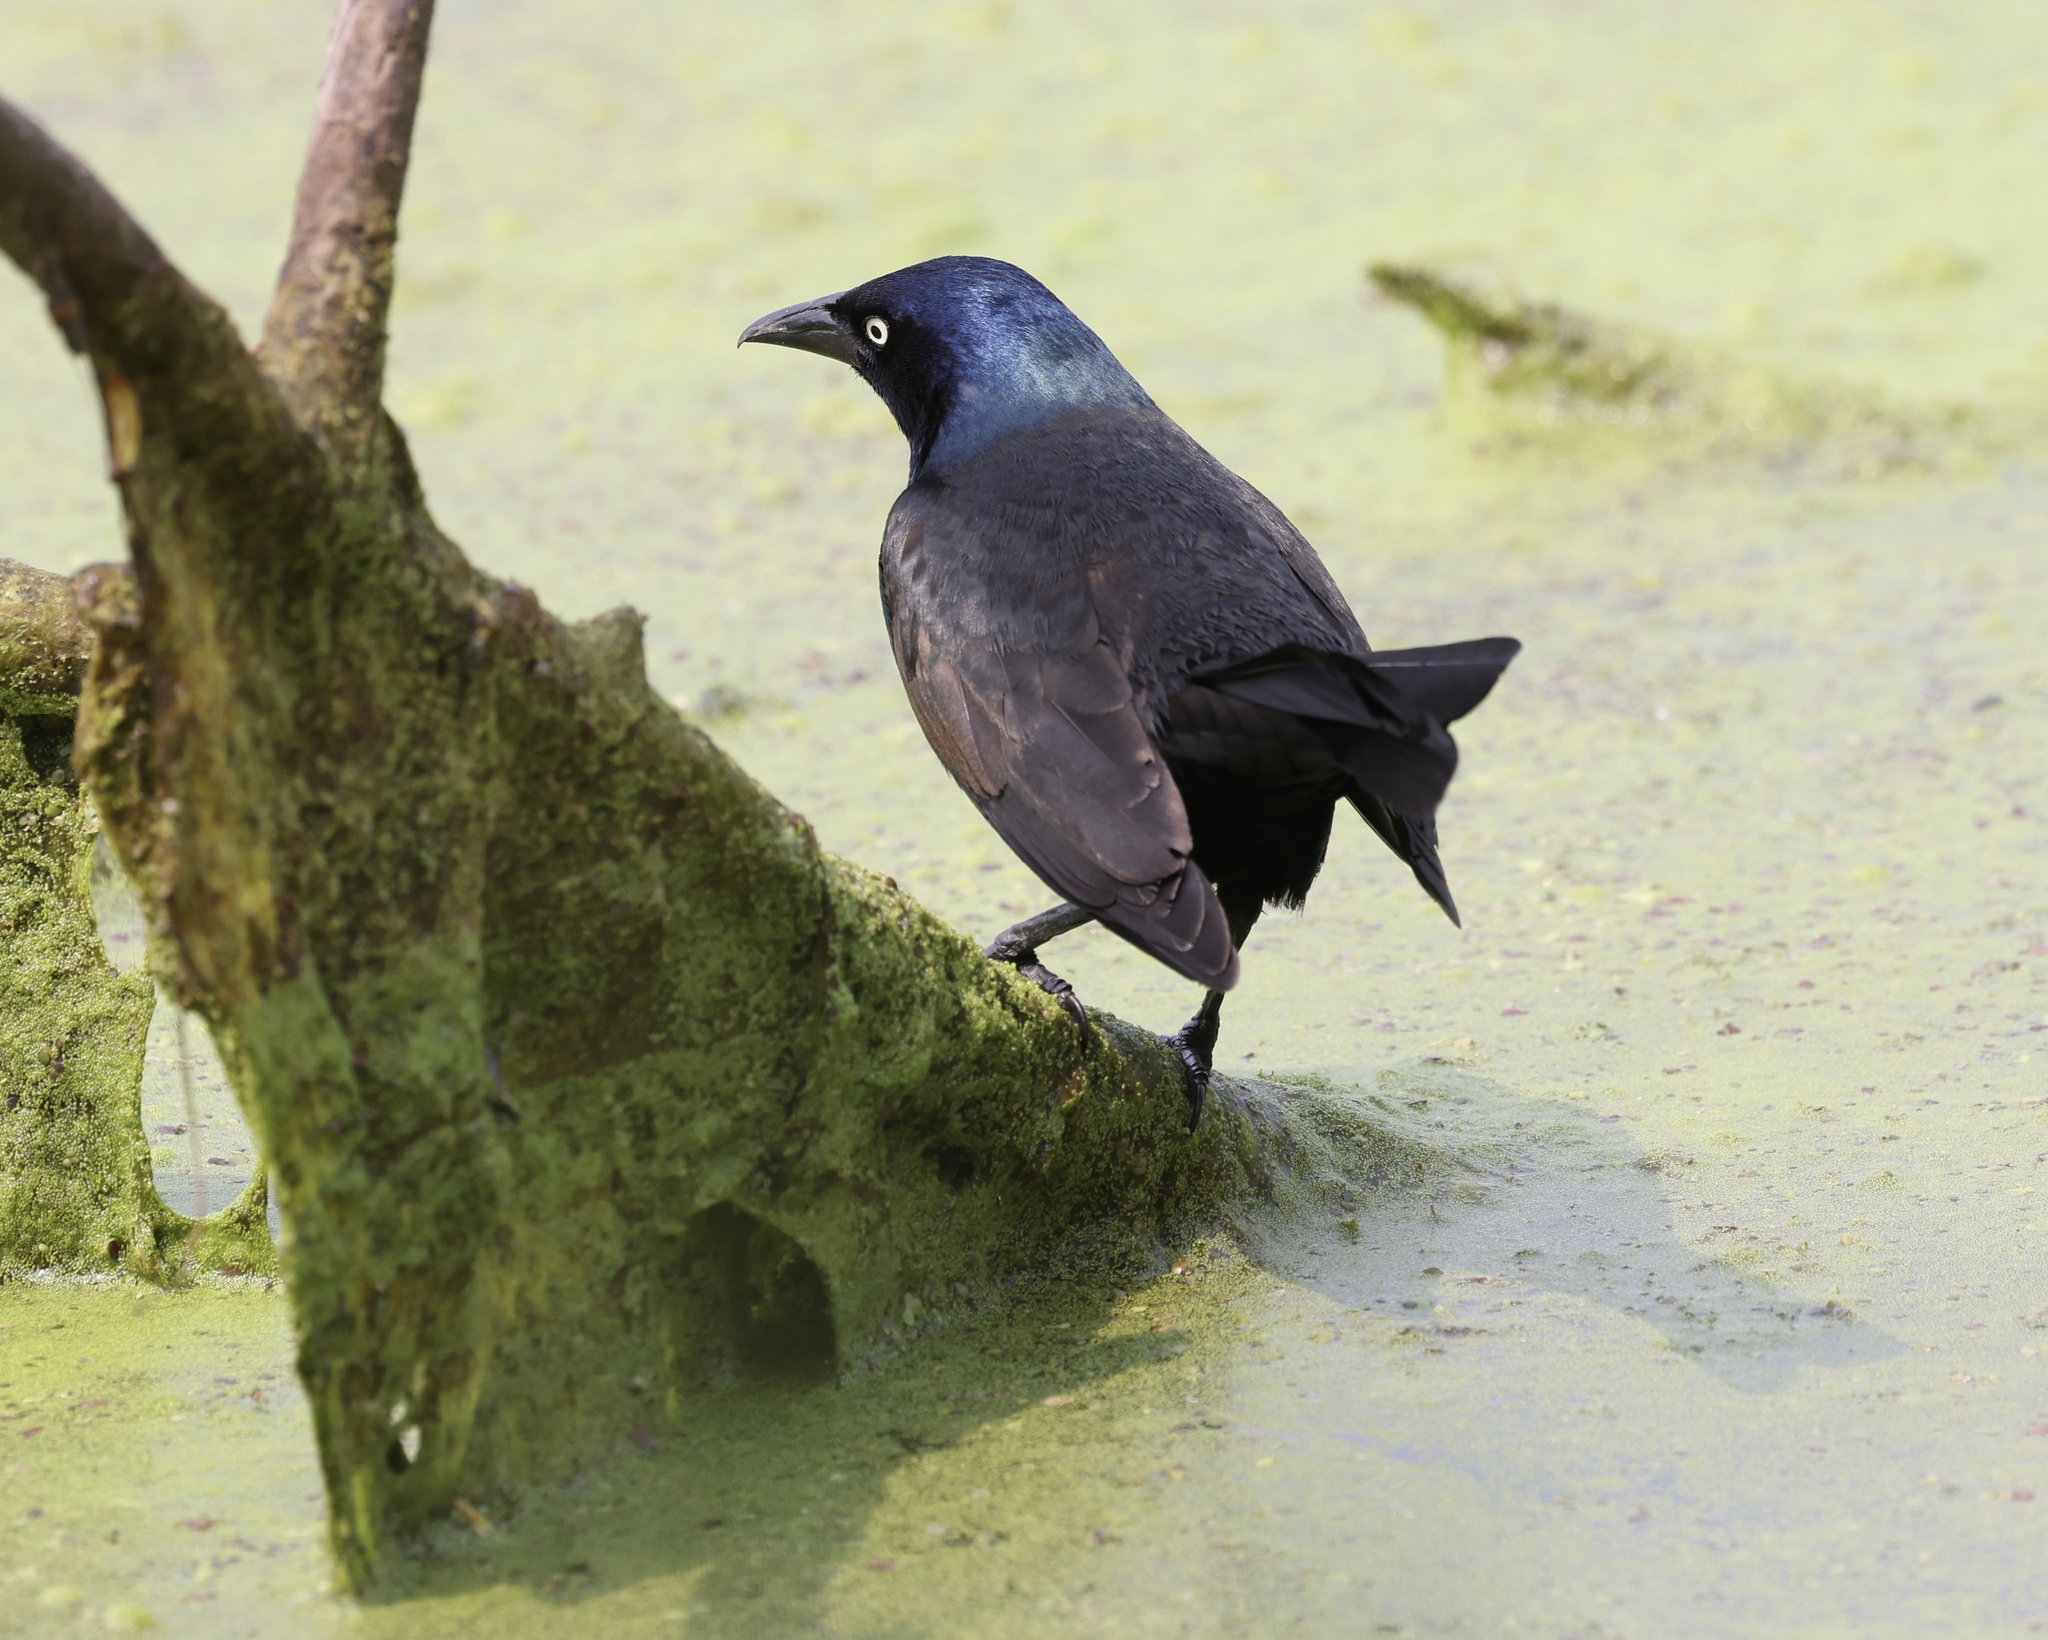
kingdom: Animalia
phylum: Chordata
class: Aves
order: Passeriformes
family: Icteridae
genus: Quiscalus
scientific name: Quiscalus quiscula
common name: Common grackle
